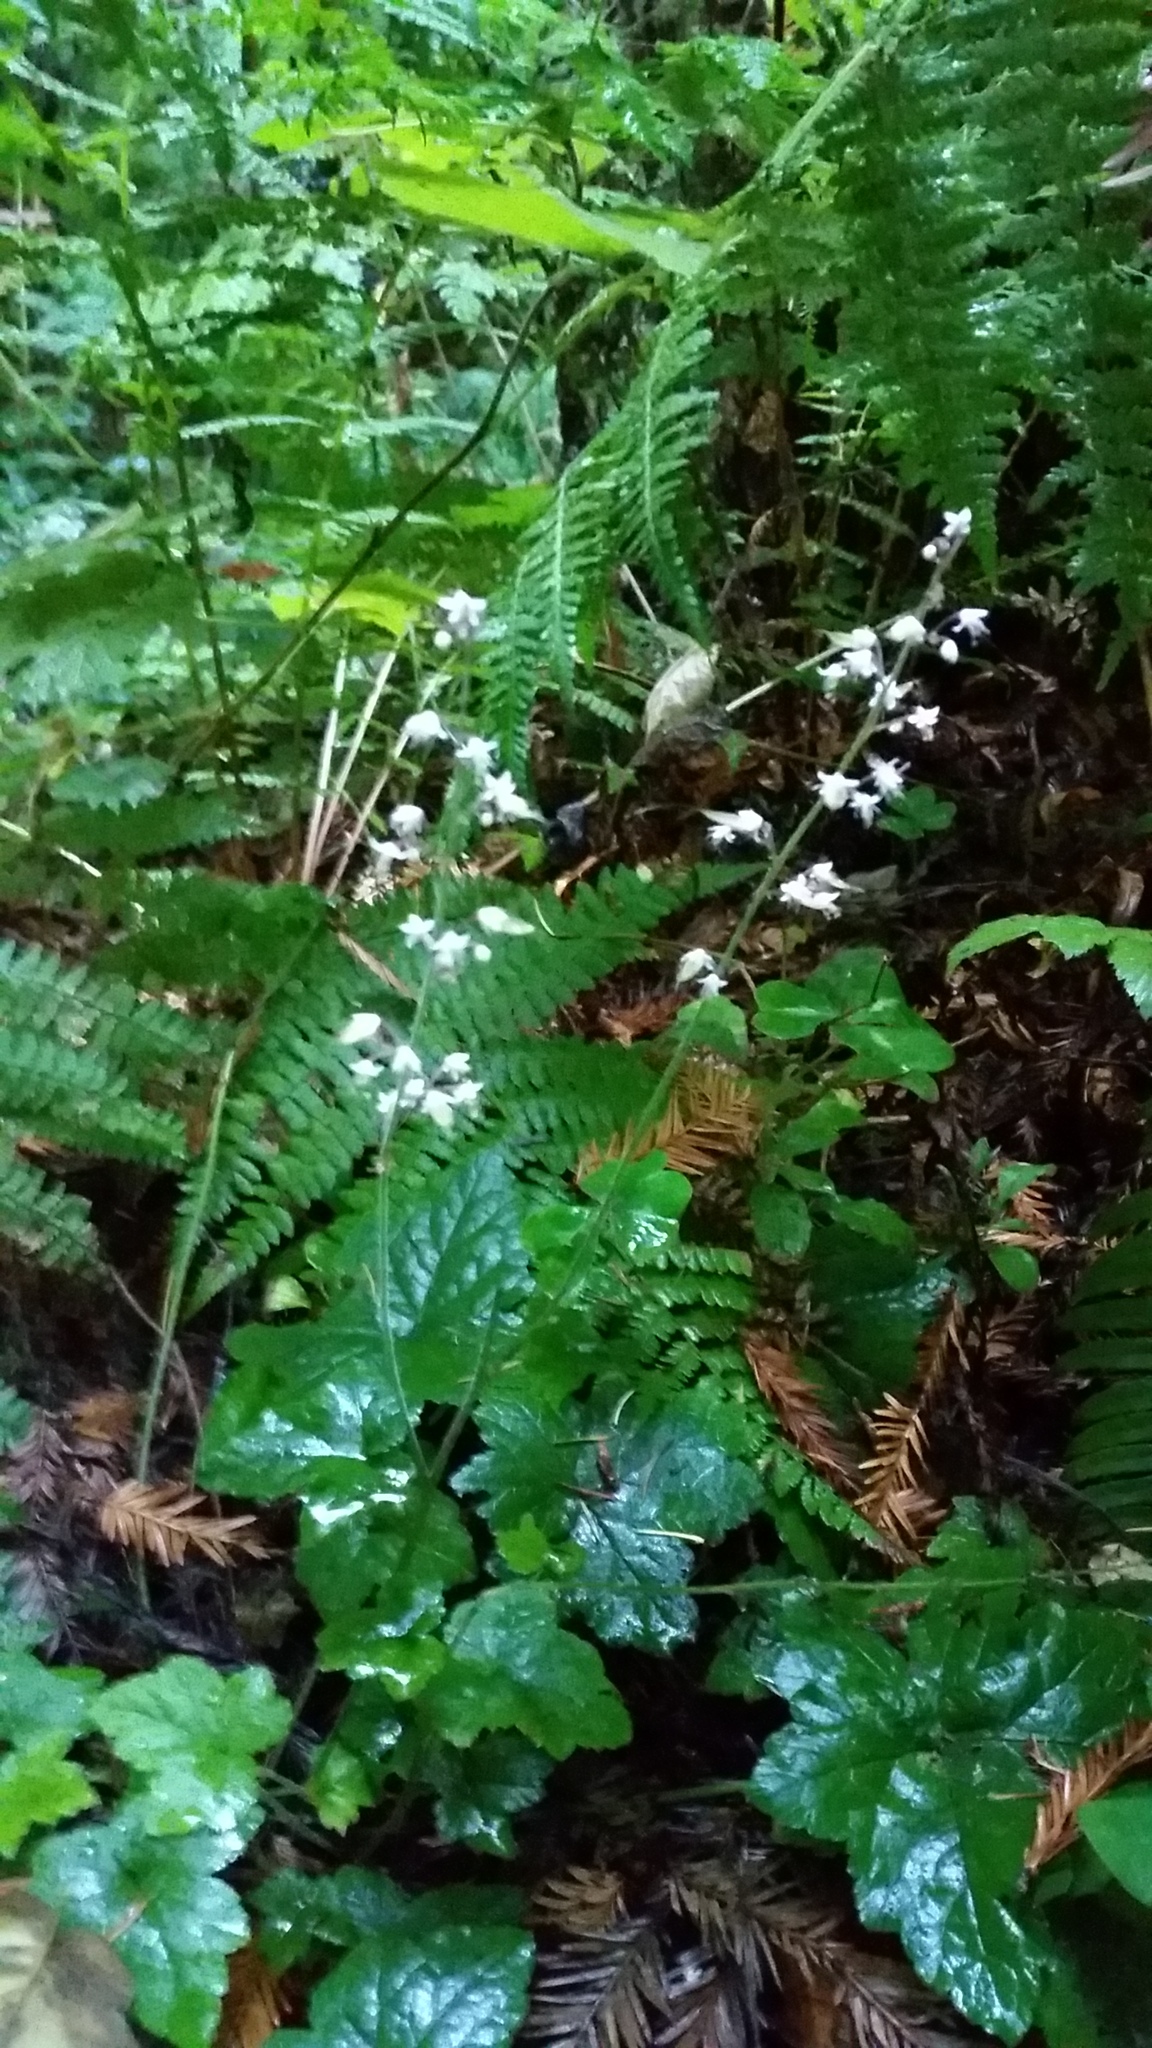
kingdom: Plantae
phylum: Tracheophyta
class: Magnoliopsida
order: Saxifragales
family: Saxifragaceae
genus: Tiarella
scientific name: Tiarella trifoliata
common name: Sugar-scoop
